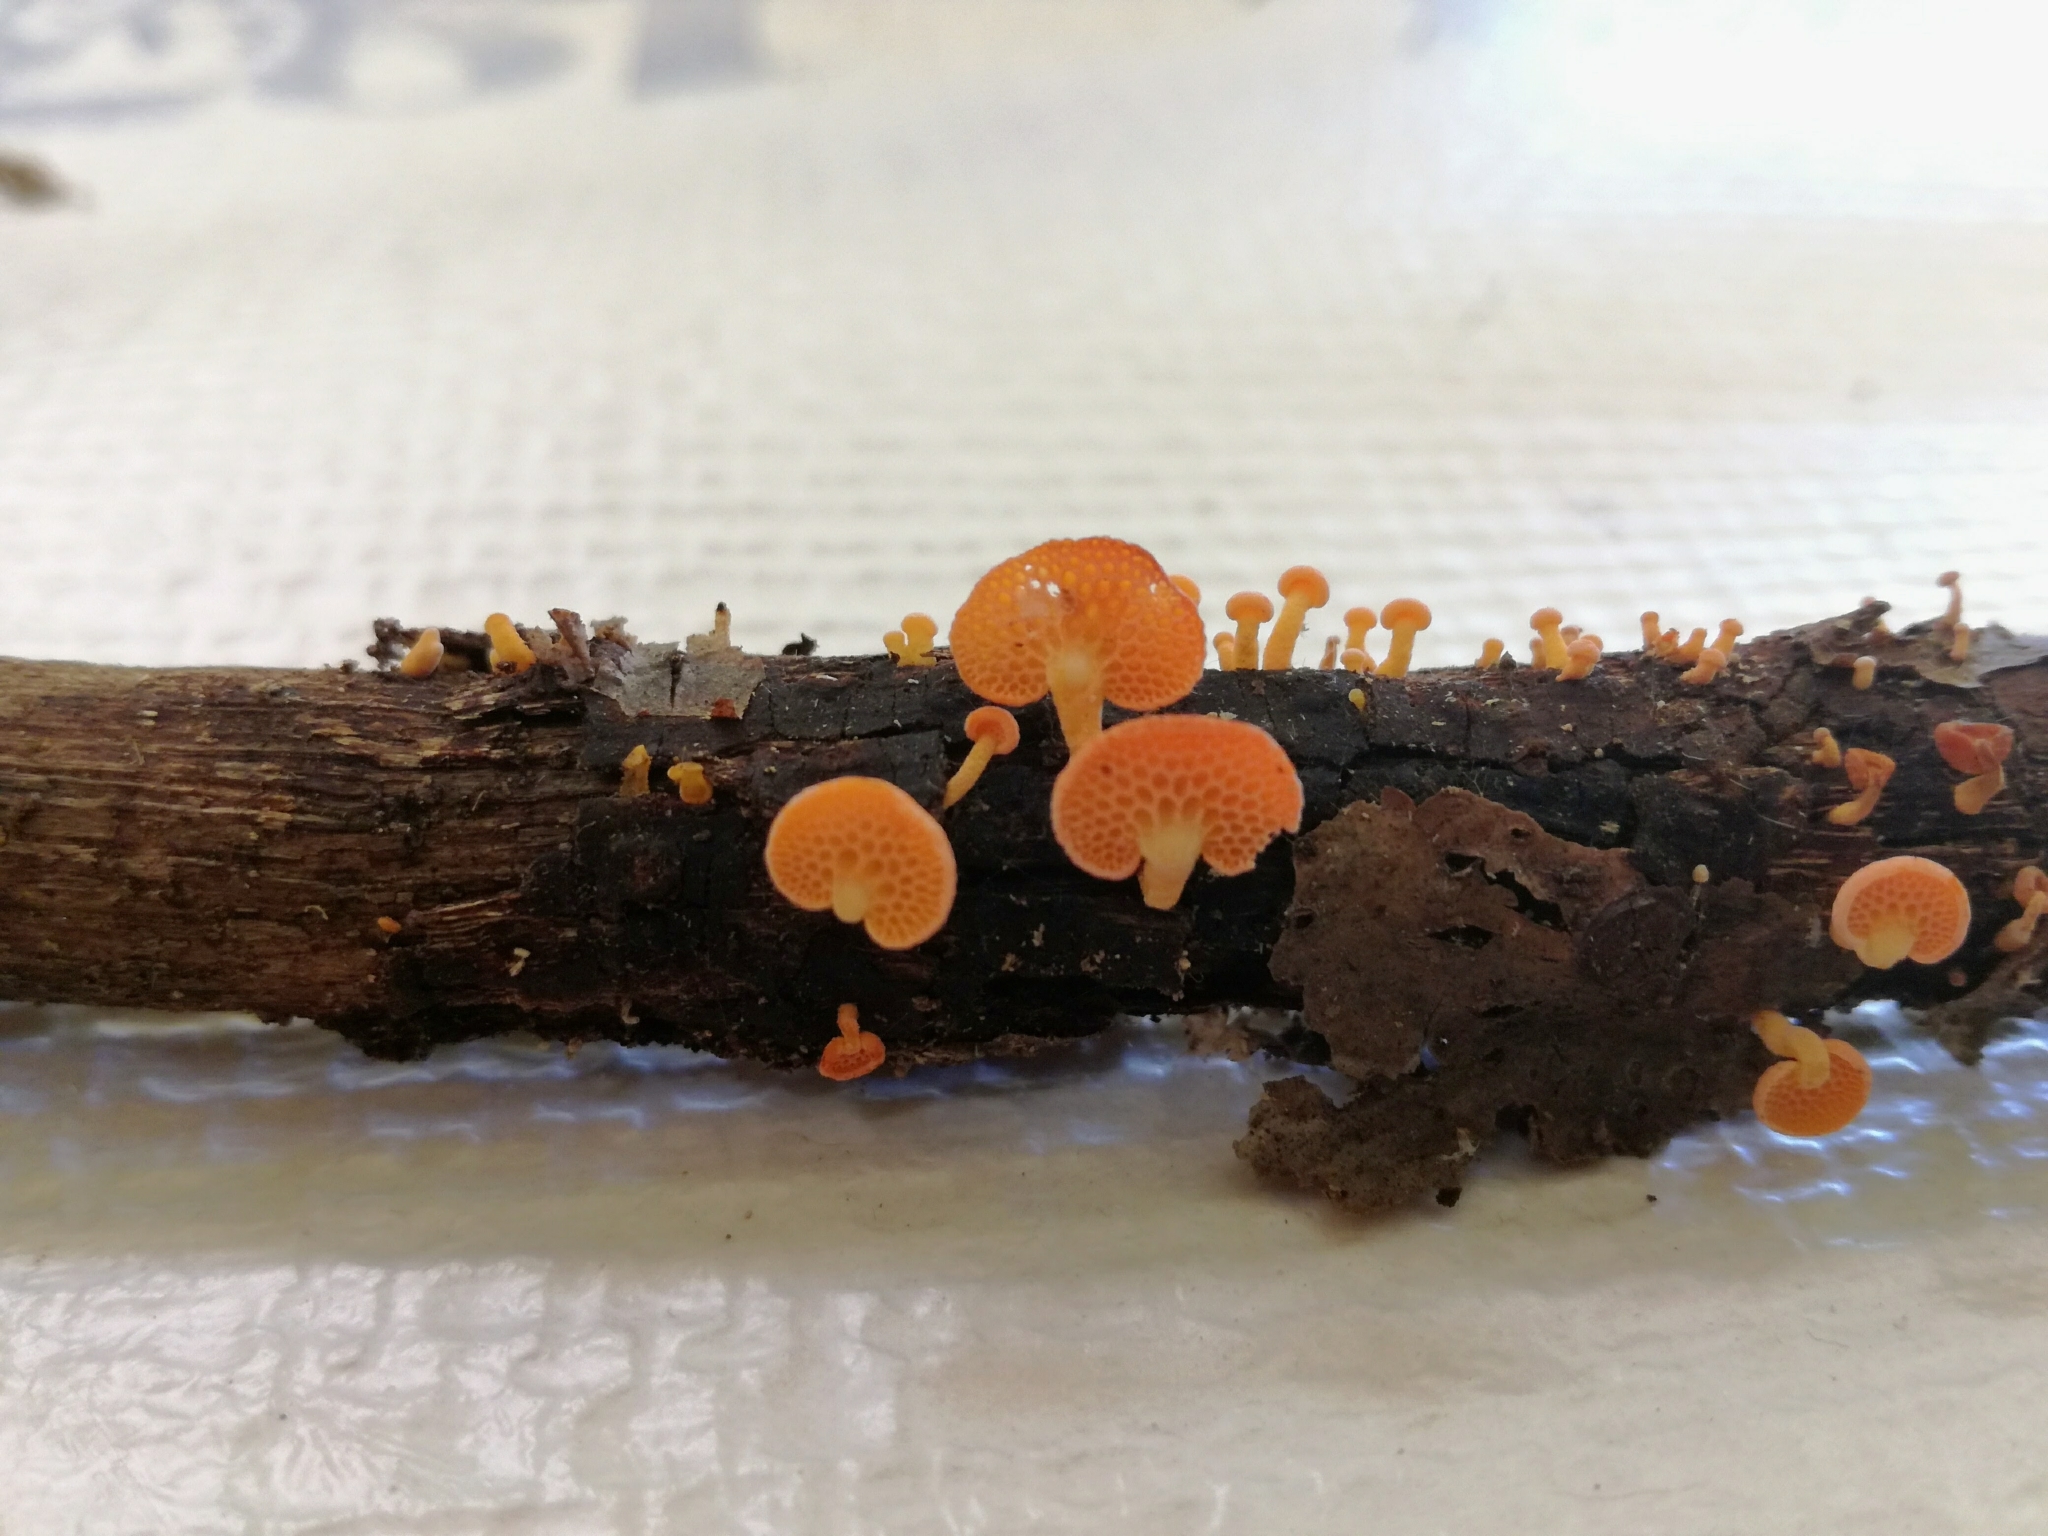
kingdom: Fungi
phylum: Basidiomycota
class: Agaricomycetes
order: Agaricales
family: Mycenaceae
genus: Favolaschia
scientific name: Favolaschia claudopus
